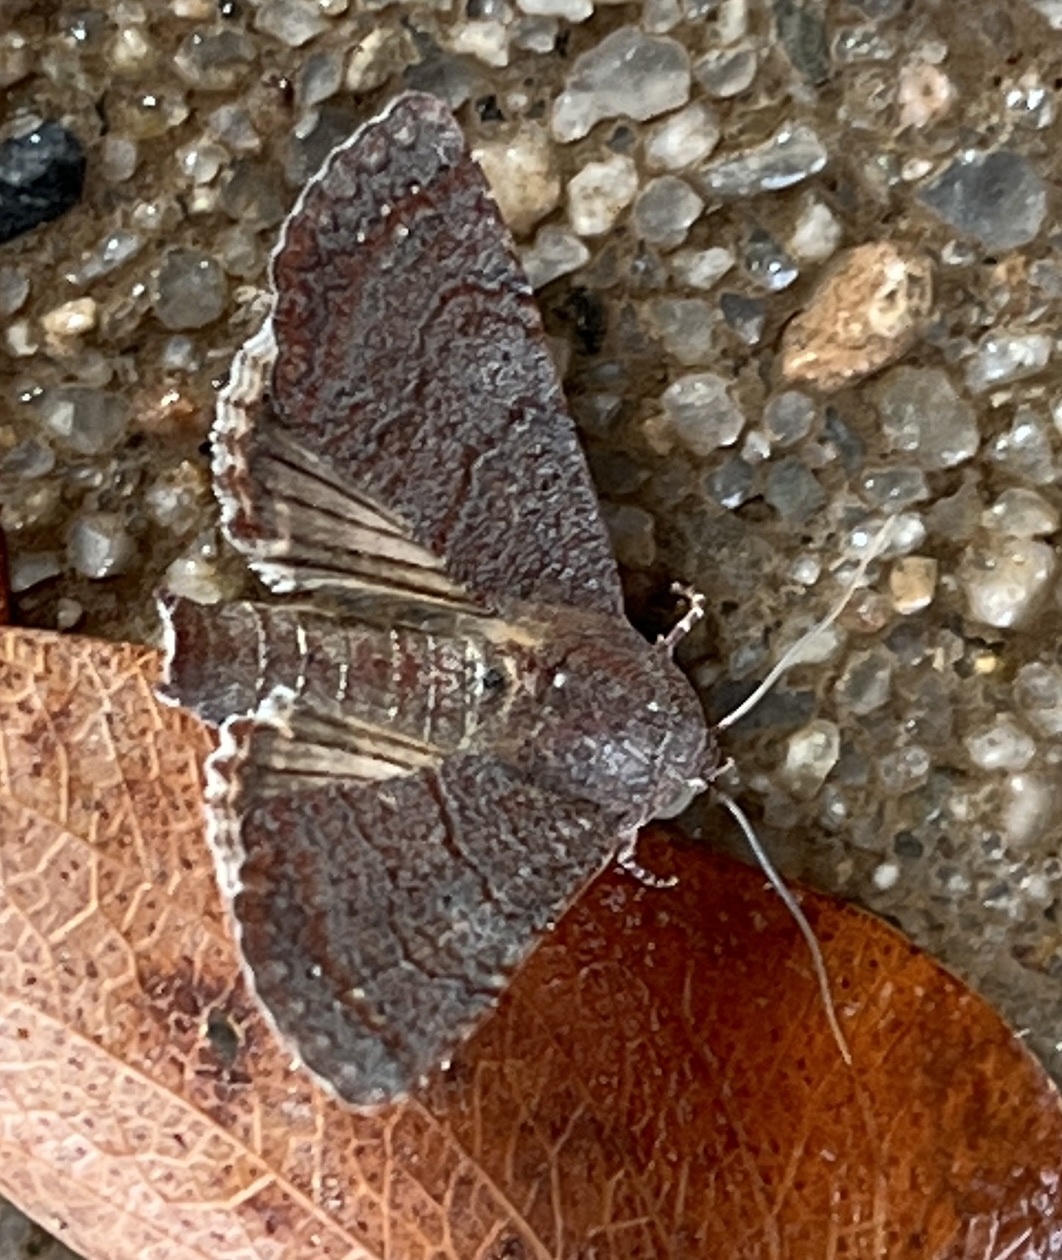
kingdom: Animalia
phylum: Arthropoda
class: Insecta
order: Lepidoptera
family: Euteliidae
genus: Eutelia
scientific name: Eutelia polychorda
